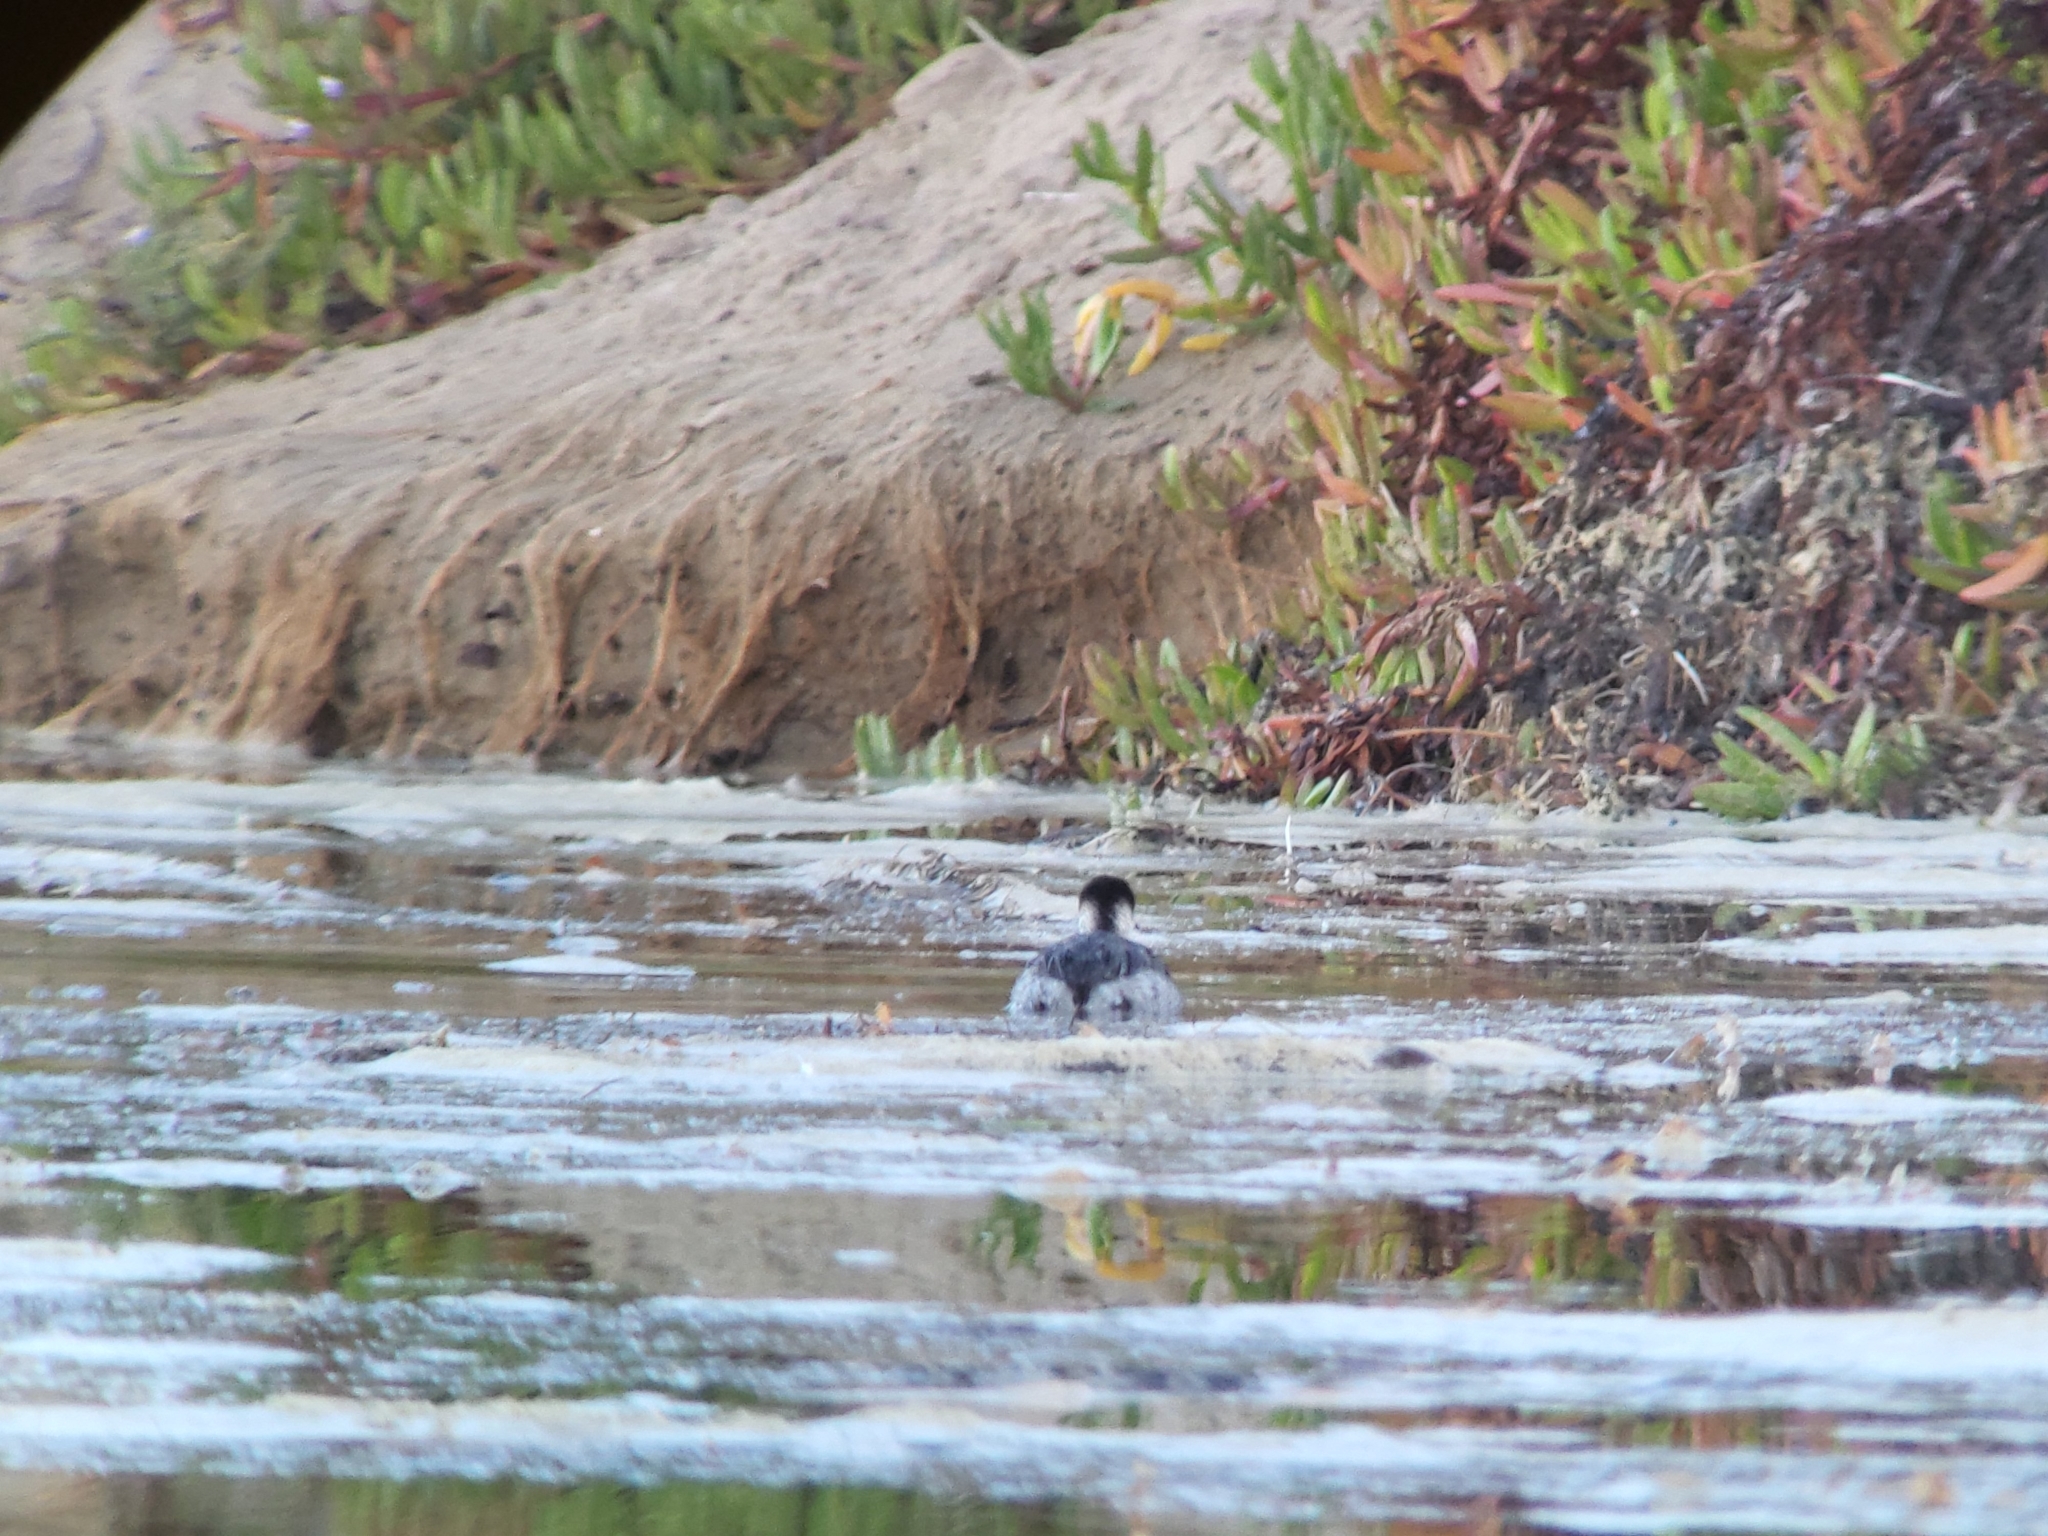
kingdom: Animalia
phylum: Chordata
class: Aves
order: Podicipediformes
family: Podicipedidae
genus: Podiceps
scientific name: Podiceps nigricollis
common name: Black-necked grebe
